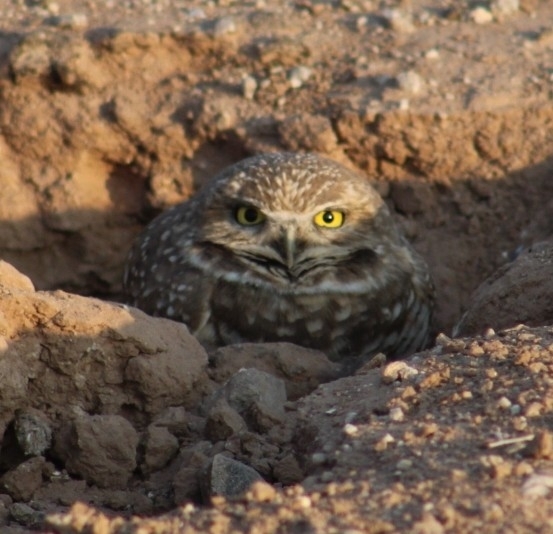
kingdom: Animalia
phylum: Chordata
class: Aves
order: Strigiformes
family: Strigidae
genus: Athene
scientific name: Athene cunicularia
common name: Burrowing owl
